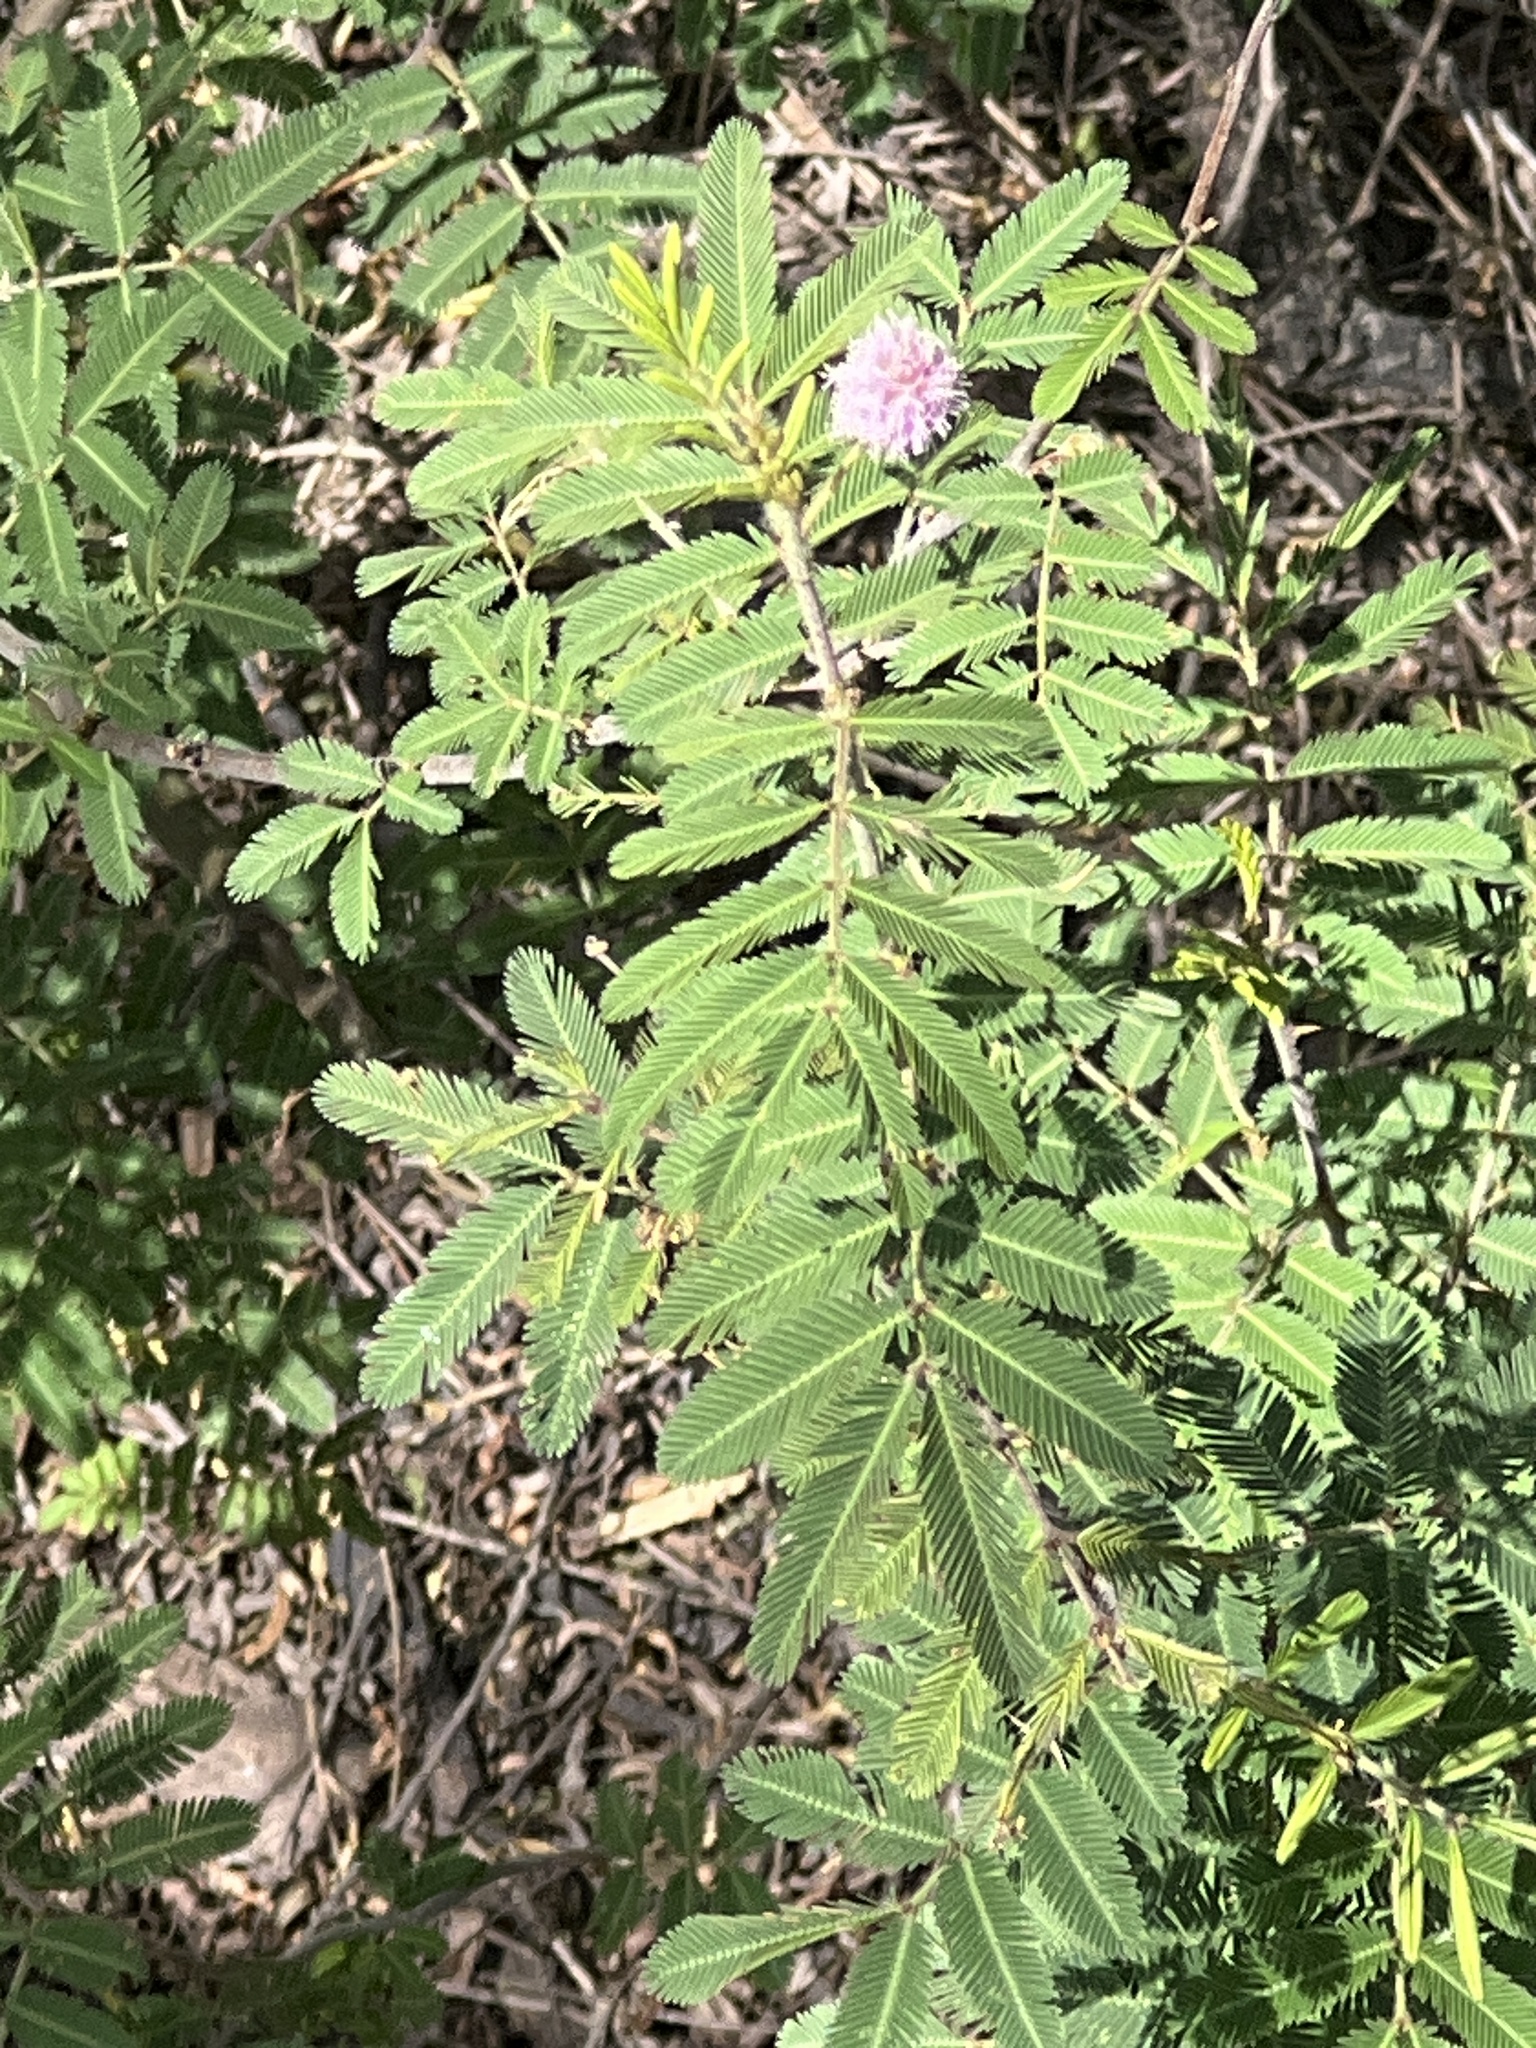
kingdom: Plantae
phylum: Tracheophyta
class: Magnoliopsida
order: Fabales
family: Fabaceae
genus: Mimosa
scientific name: Mimosa pigra
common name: Black mimosa
